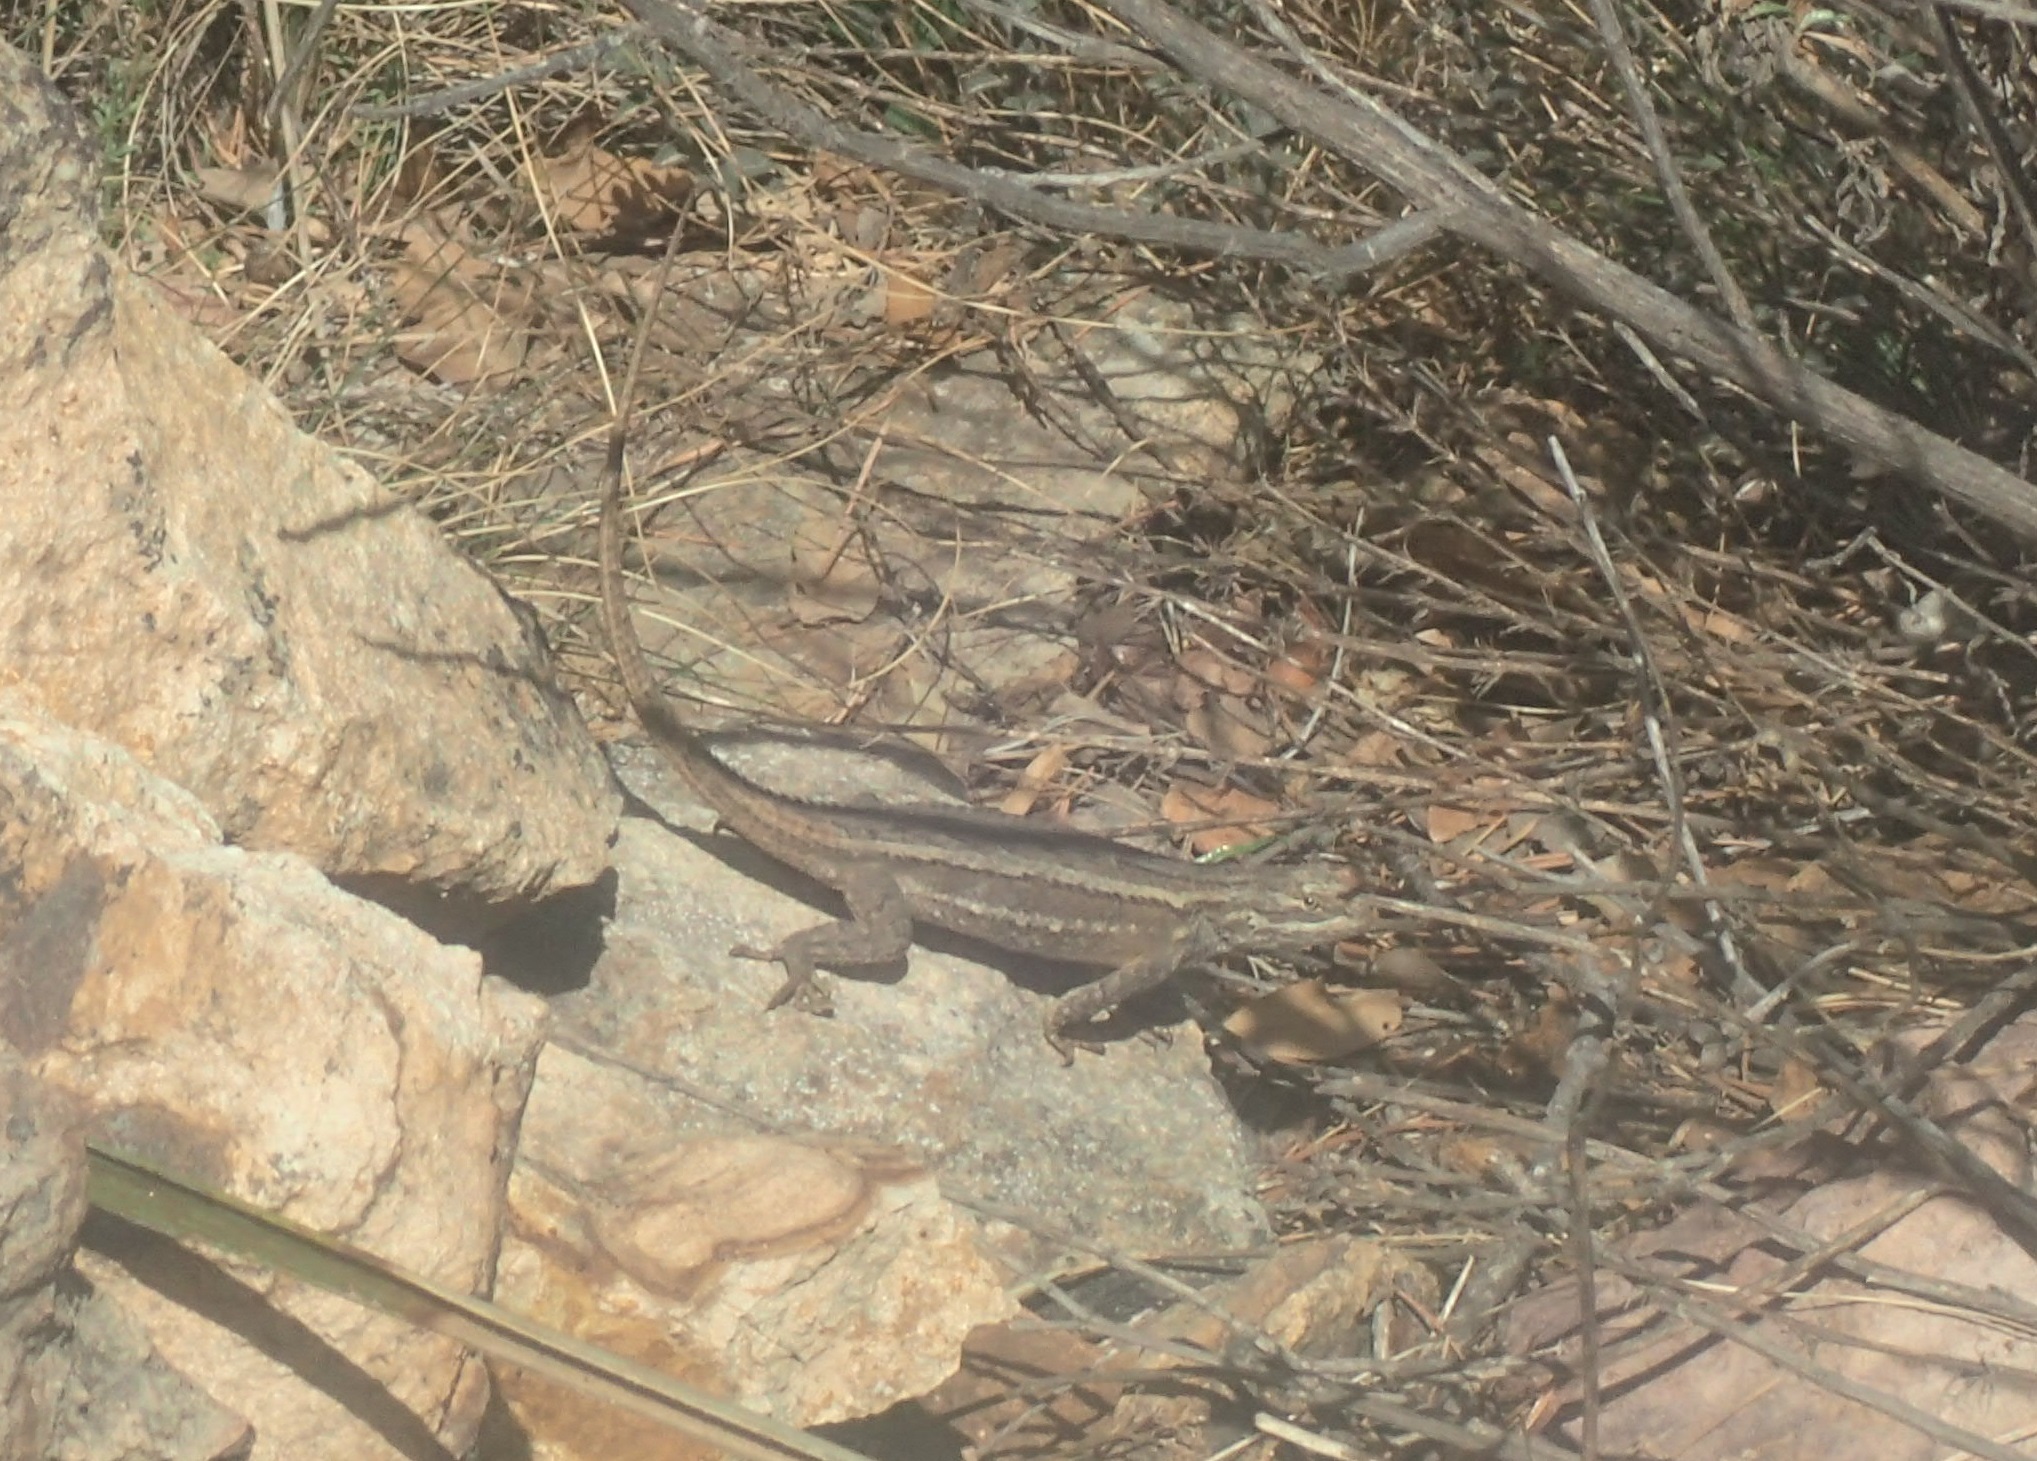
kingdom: Animalia
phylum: Chordata
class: Squamata
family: Phrynosomatidae
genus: Sceloporus
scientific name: Sceloporus cowlesi
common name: White sands prairie lizard
